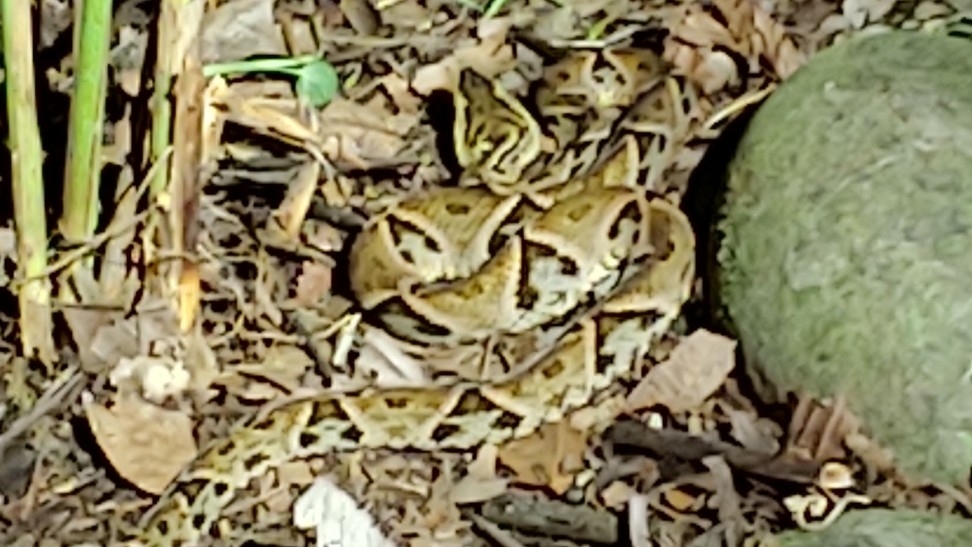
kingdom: Animalia
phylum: Chordata
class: Squamata
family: Viperidae
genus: Bothrops
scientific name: Bothrops asper
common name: Terciopelo
